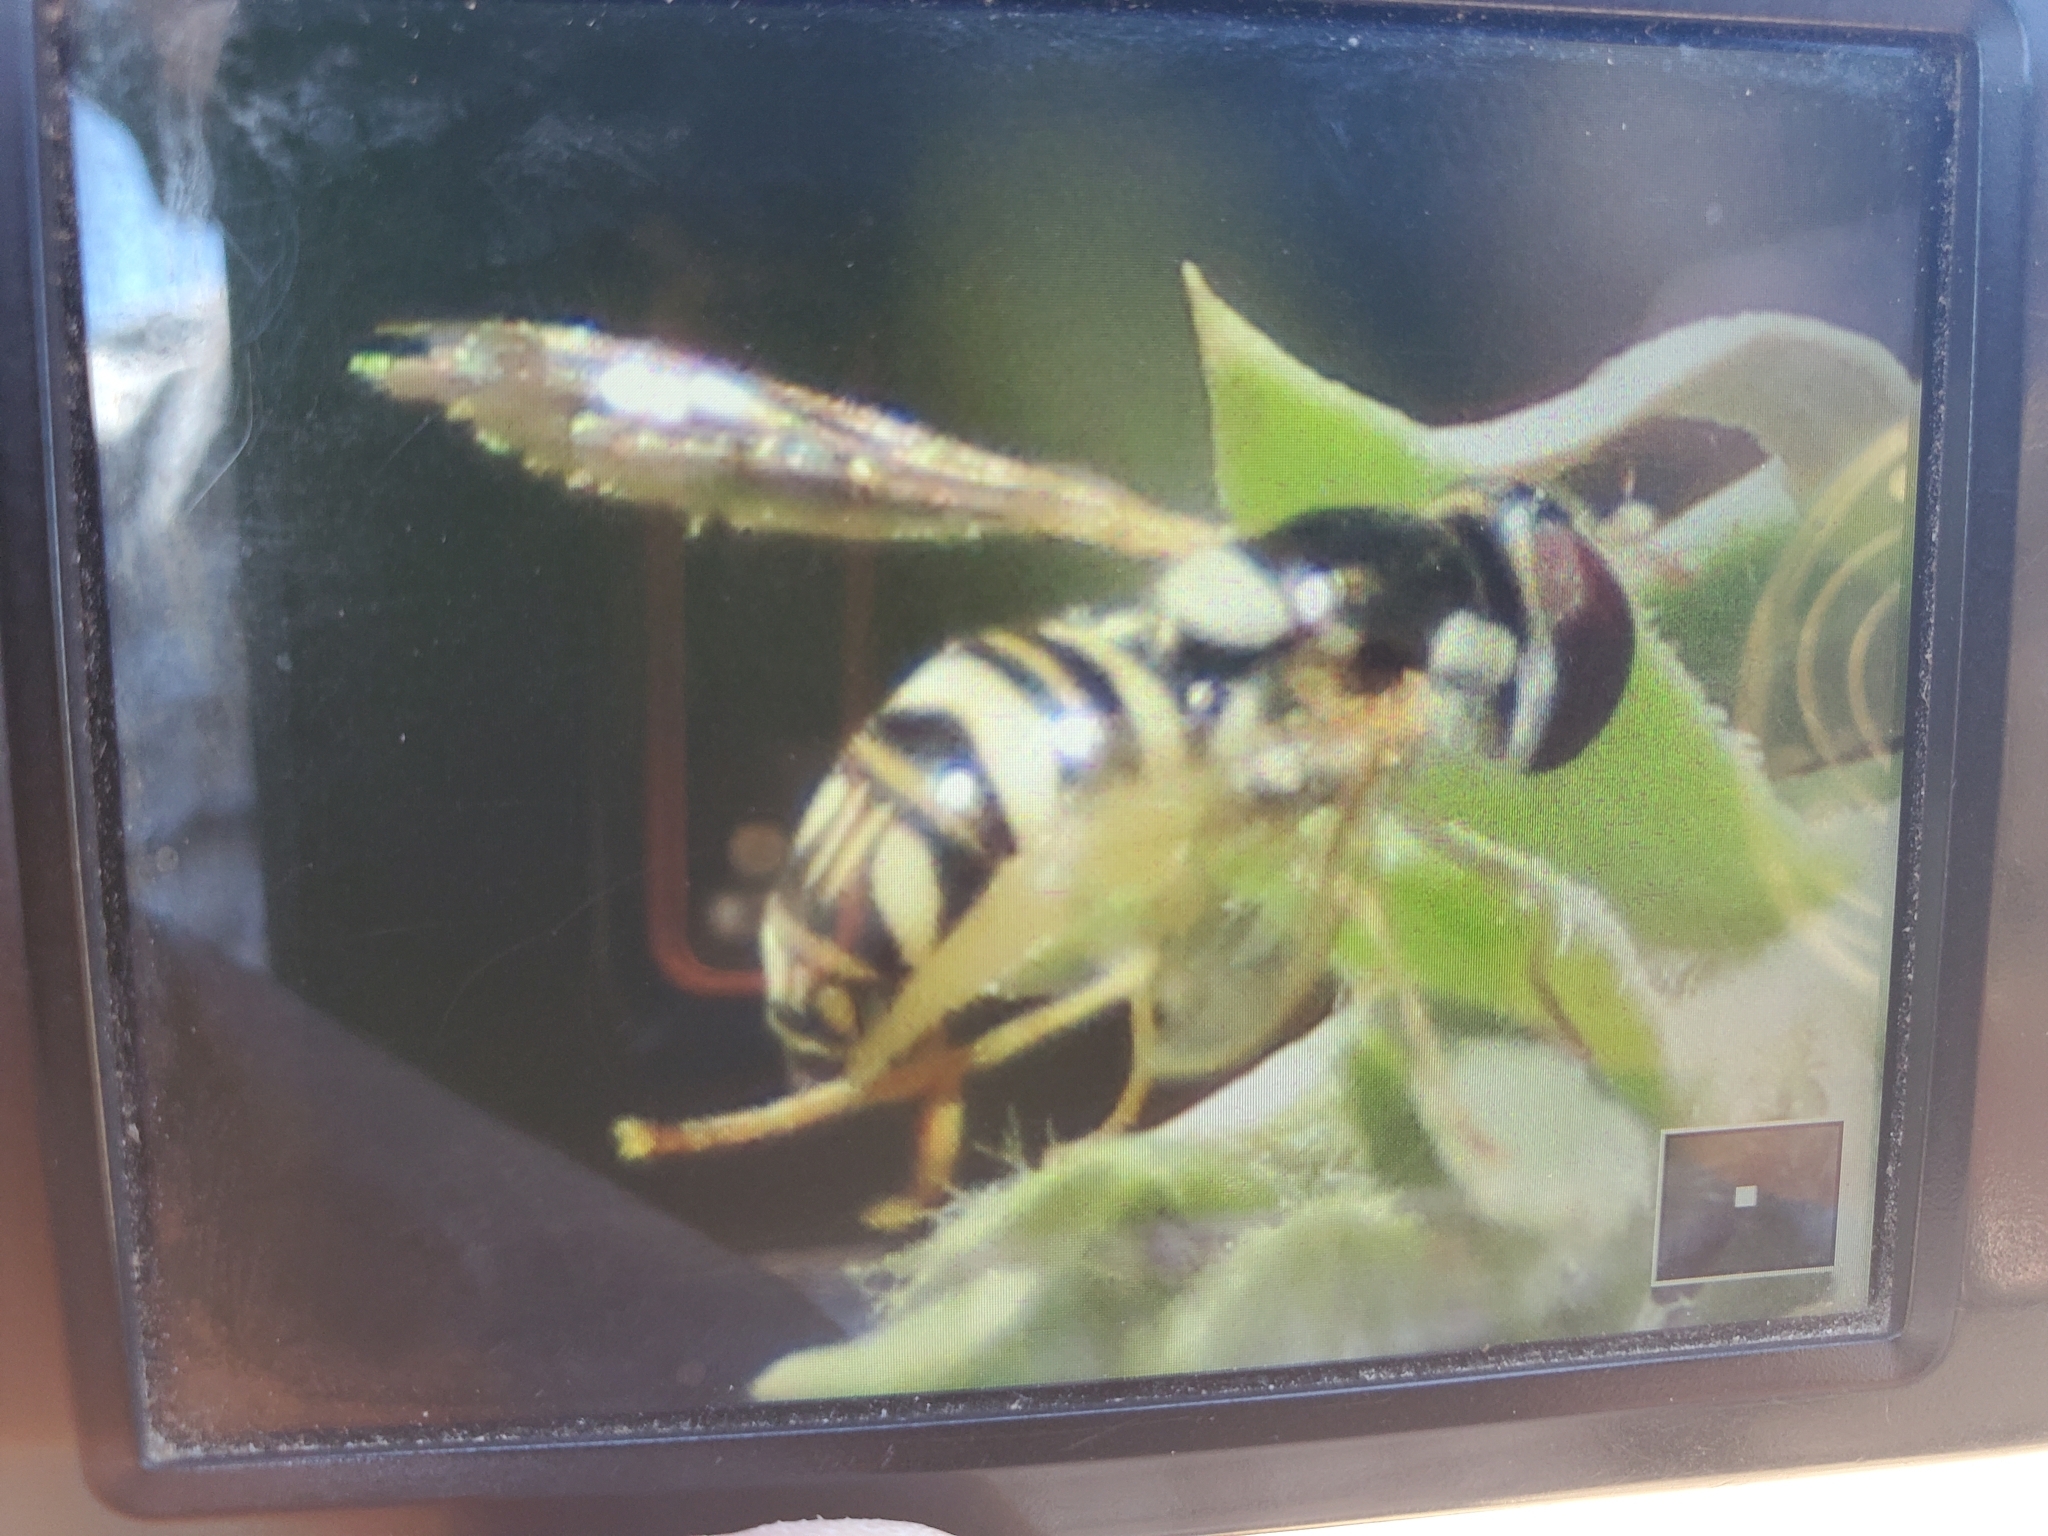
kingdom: Animalia
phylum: Arthropoda
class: Insecta
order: Diptera
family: Syrphidae
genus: Allograpta
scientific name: Allograpta exotica
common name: Syrphid fly
